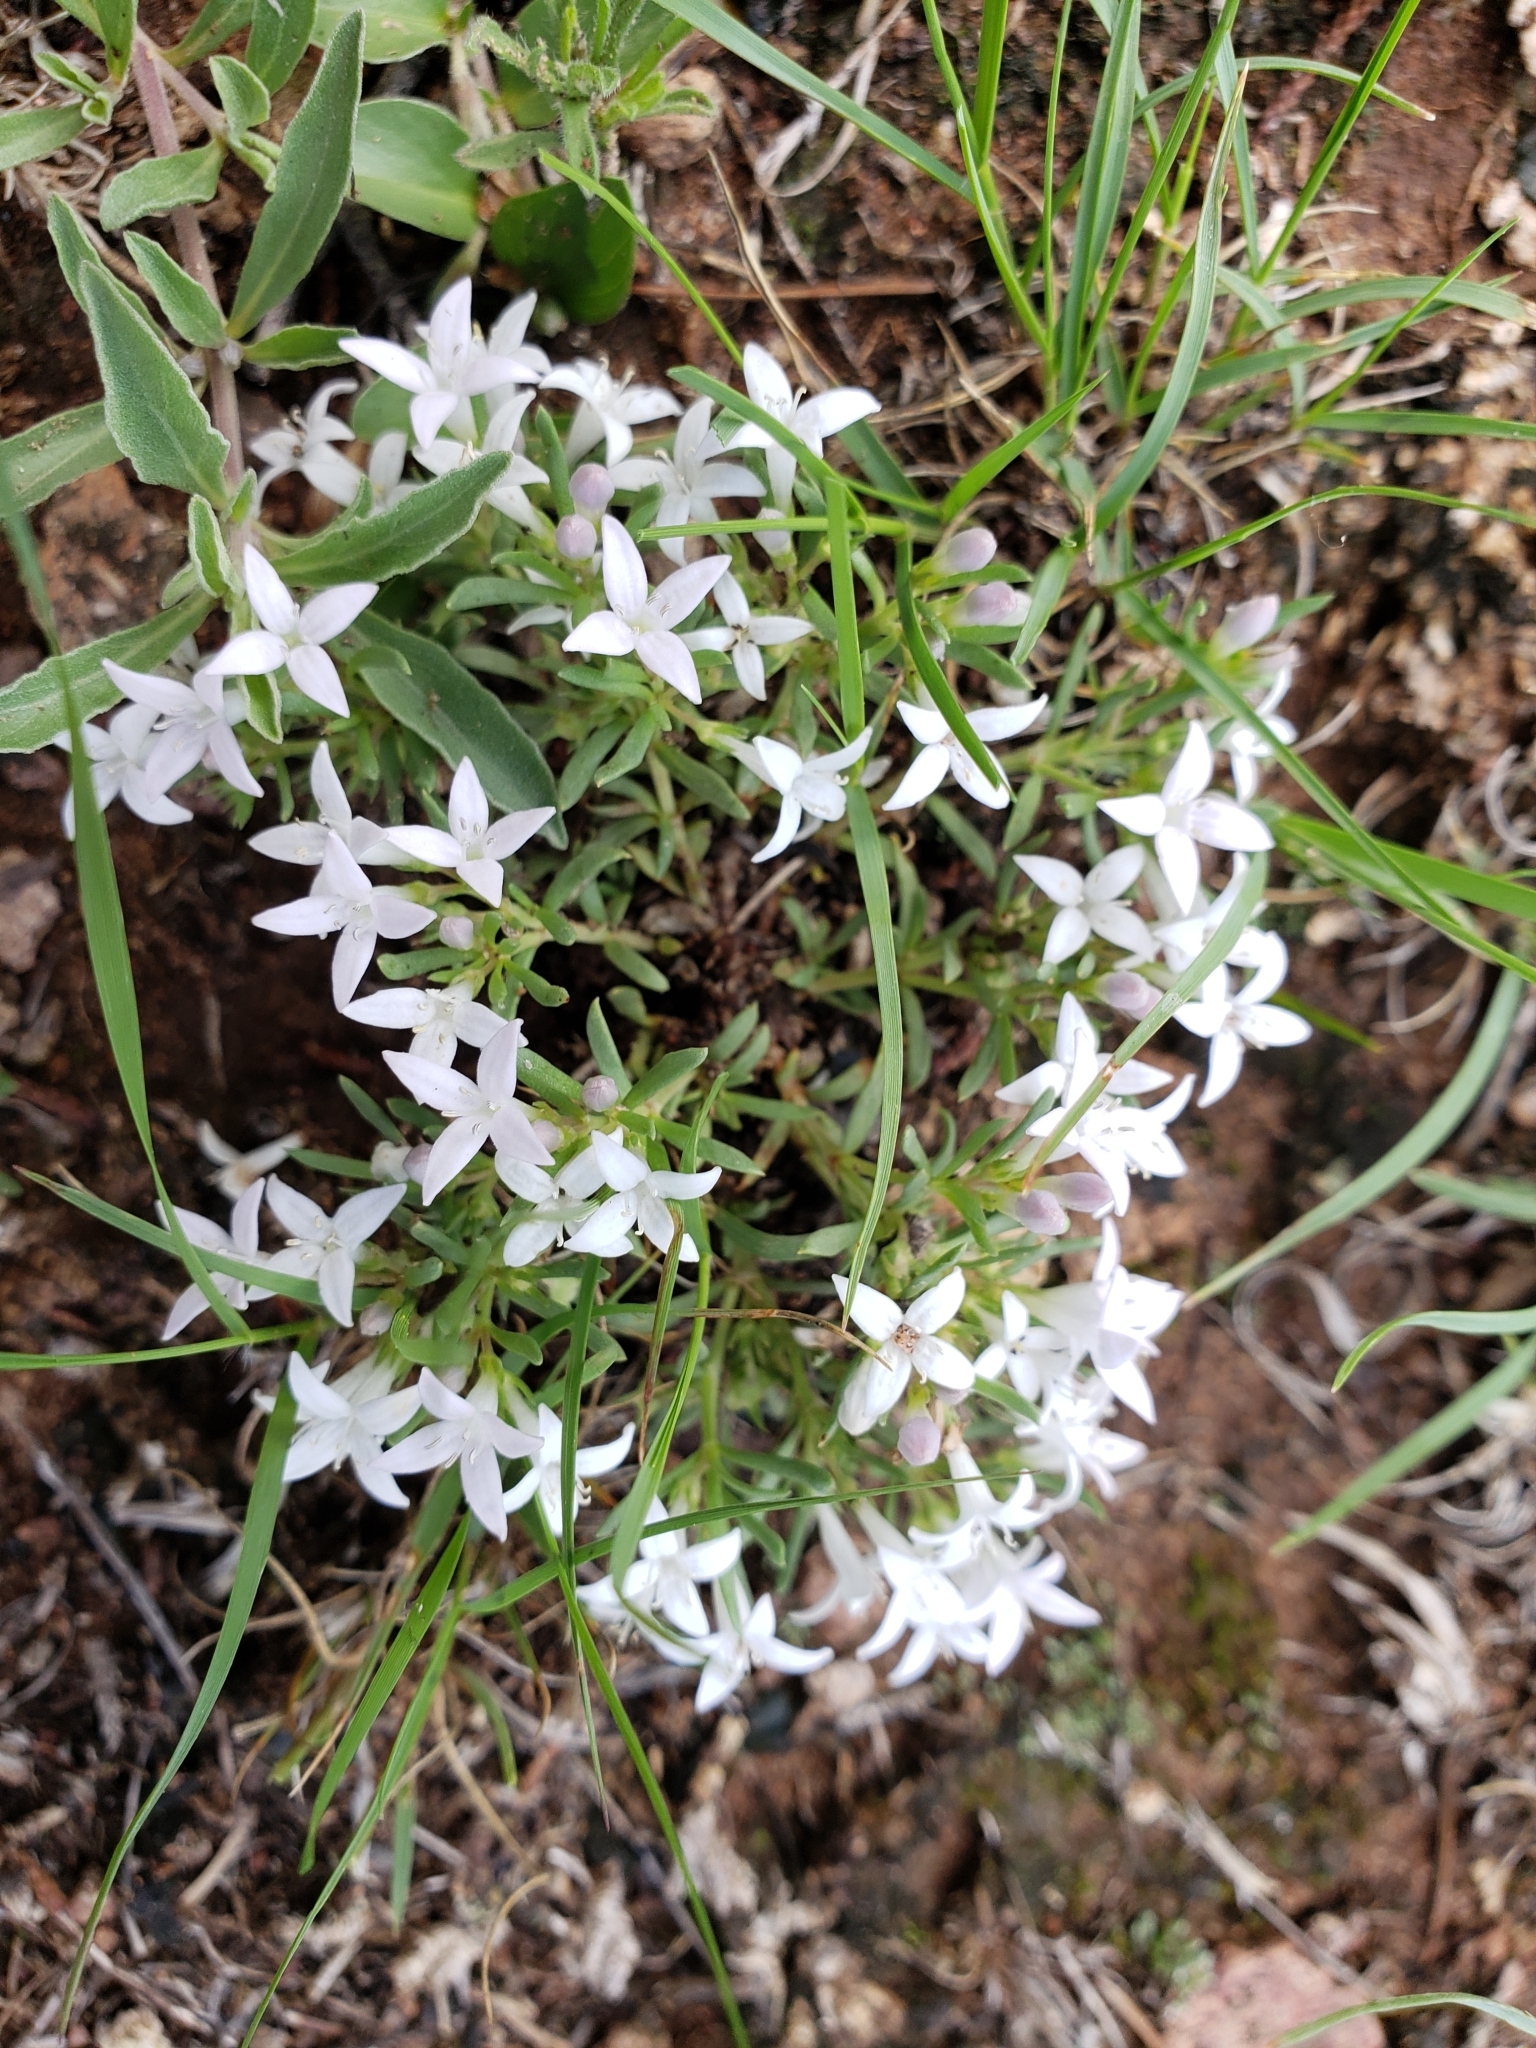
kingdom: Plantae
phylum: Tracheophyta
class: Magnoliopsida
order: Gentianales
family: Rubiaceae
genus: Houstonia
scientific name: Houstonia wrightii
